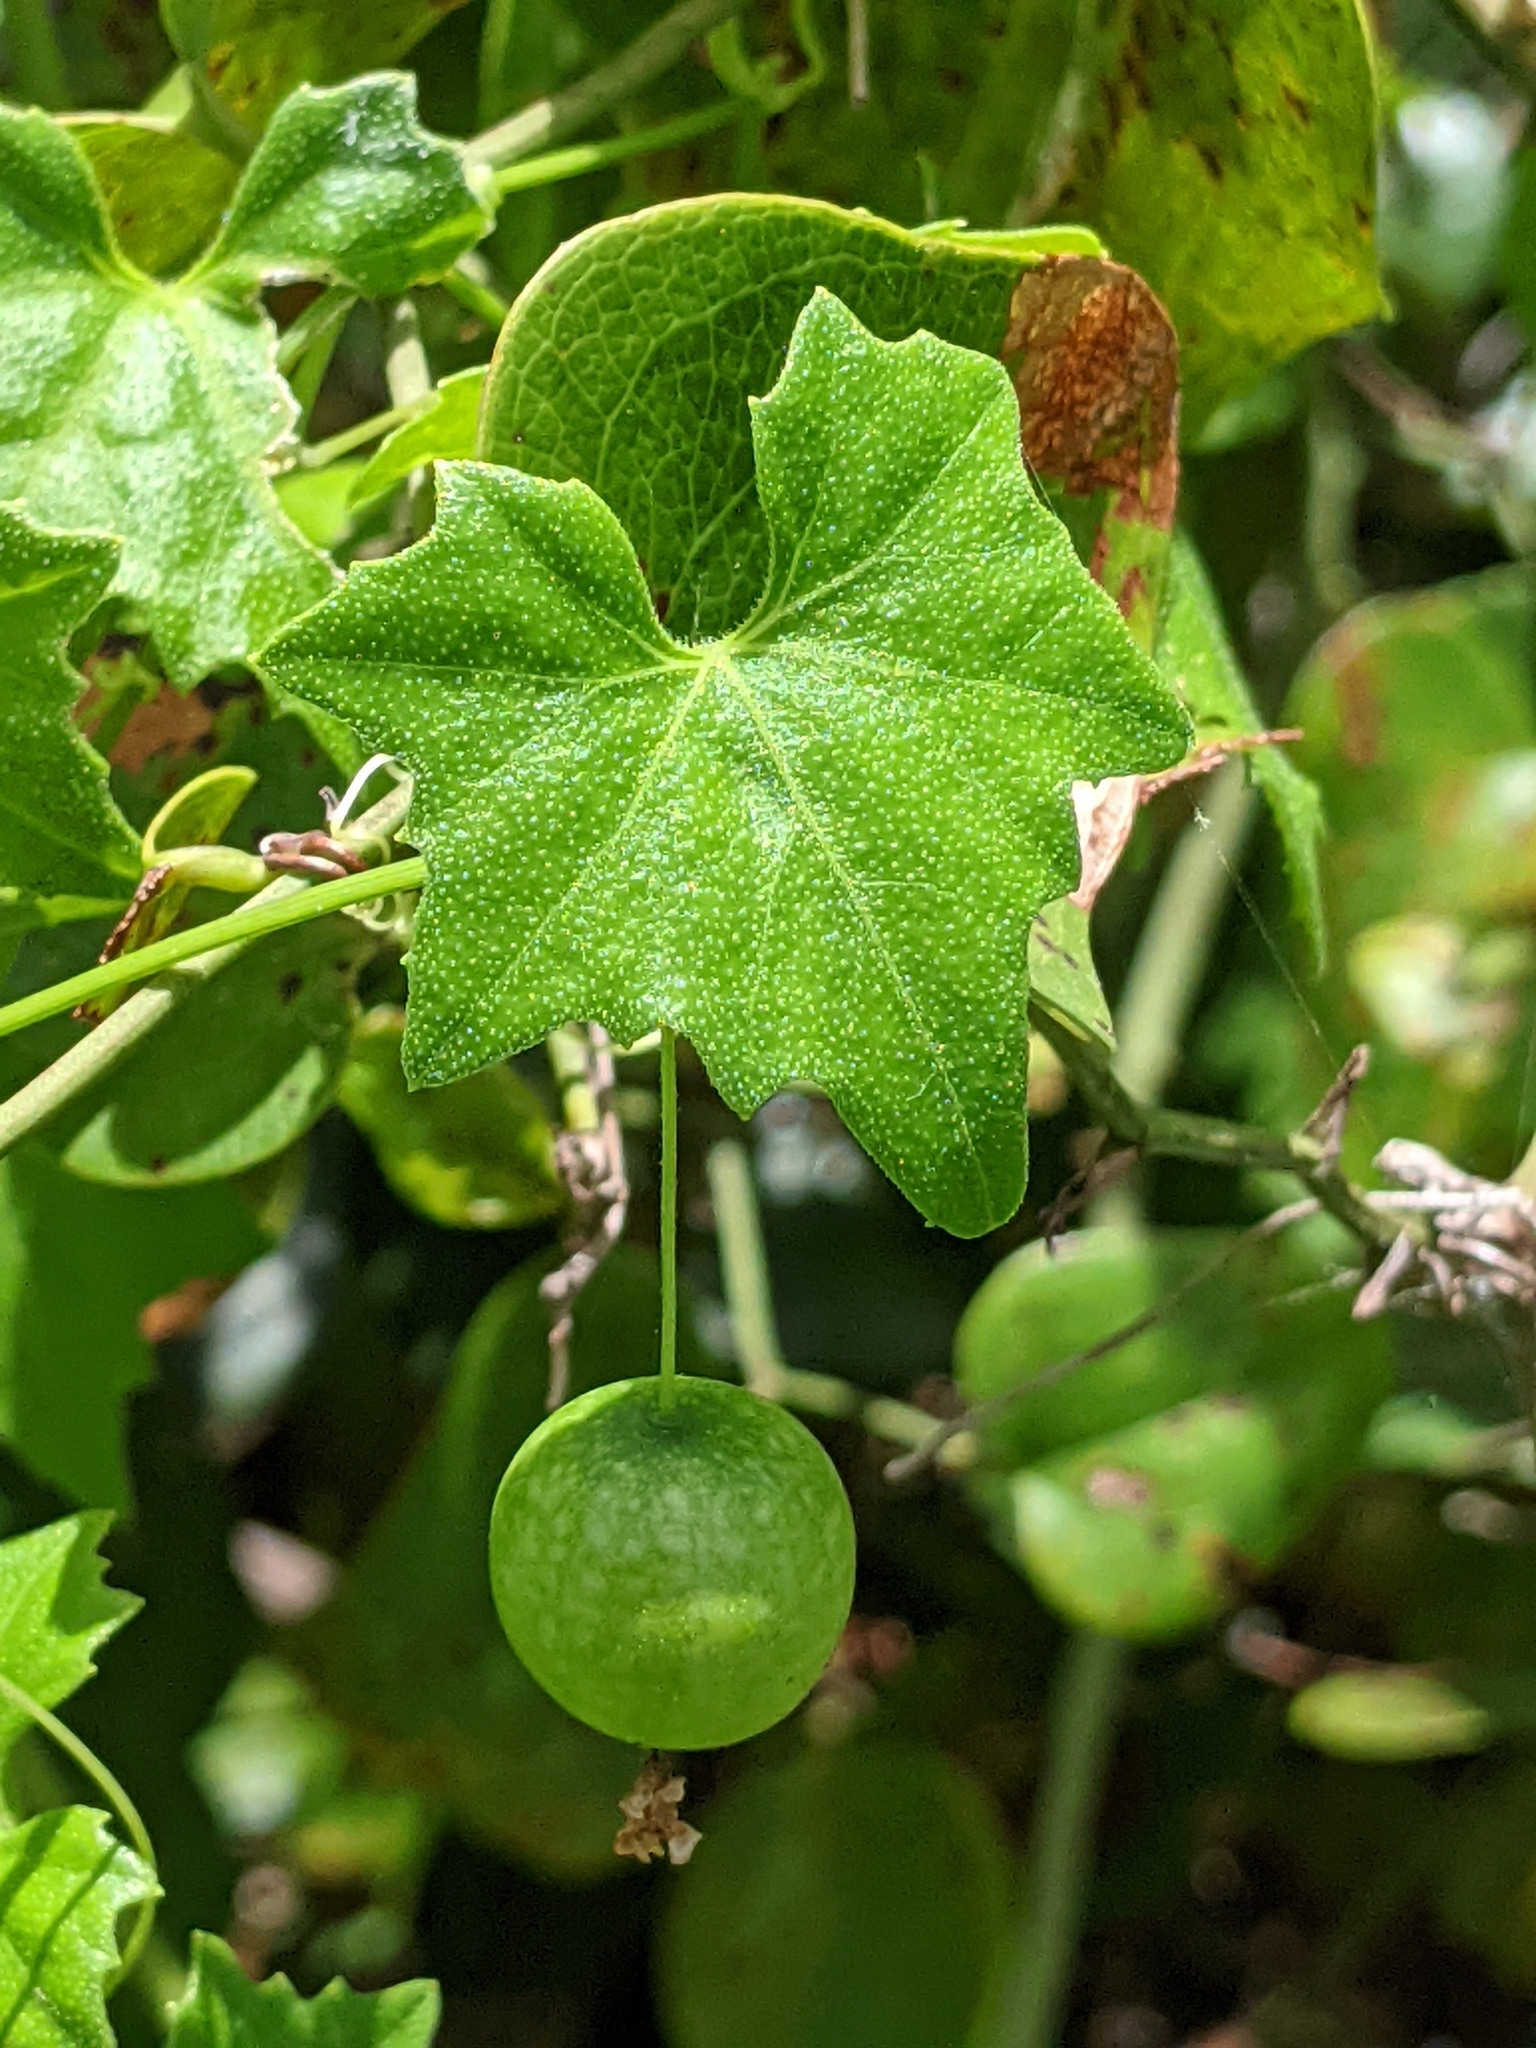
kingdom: Plantae
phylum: Tracheophyta
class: Magnoliopsida
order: Cucurbitales
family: Cucurbitaceae
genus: Melothria
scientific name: Melothria pendula
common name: Creeping-cucumber
